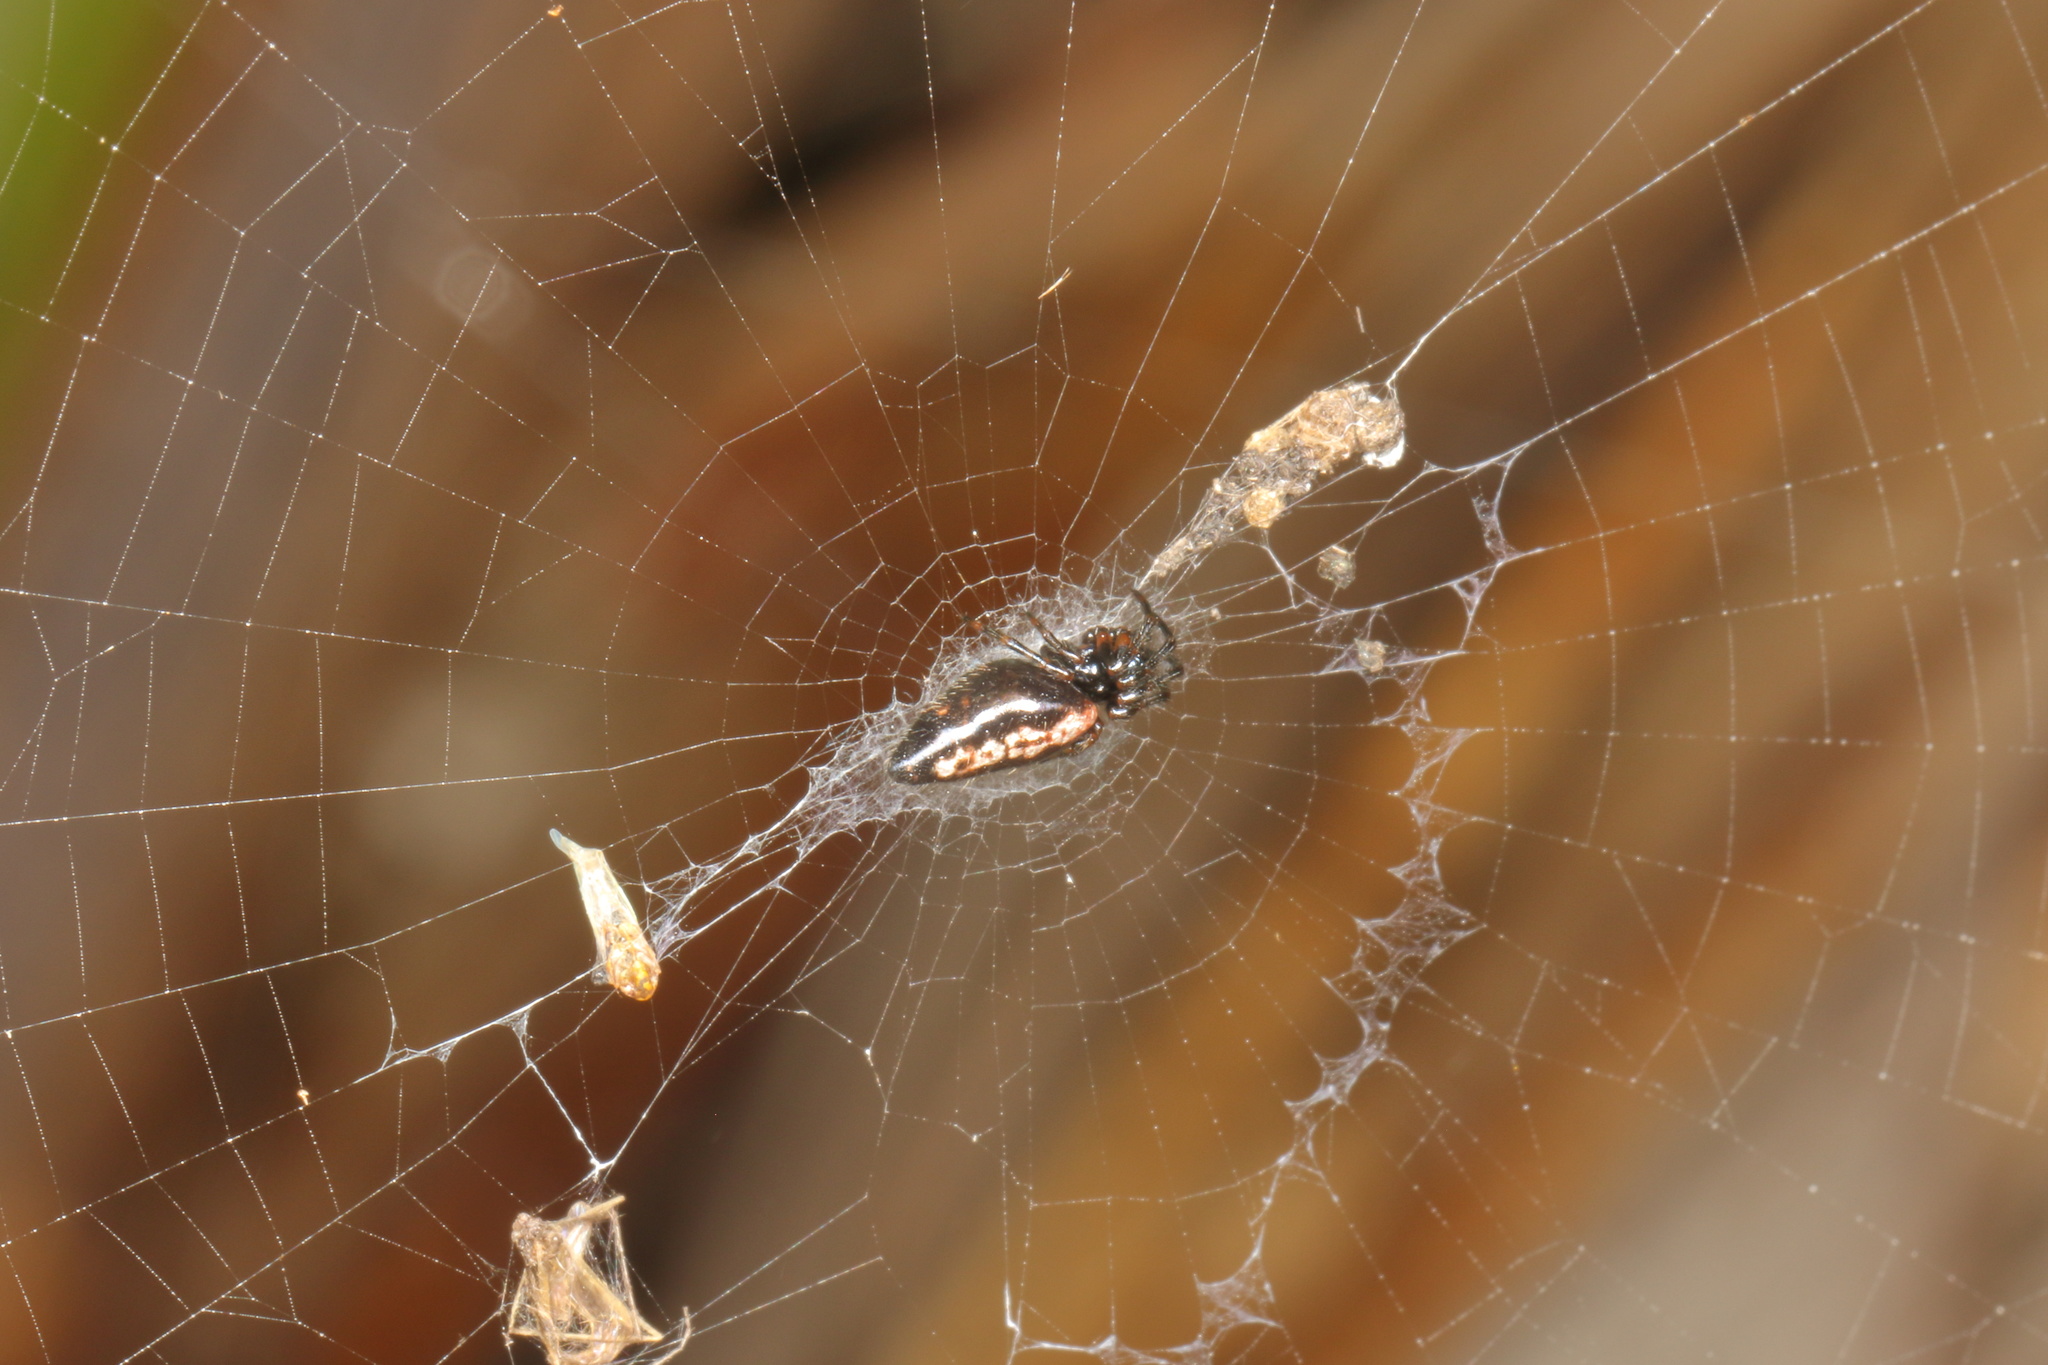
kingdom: Animalia
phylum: Arthropoda
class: Arachnida
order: Araneae
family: Araneidae
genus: Cyclosa
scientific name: Cyclosa trilobata
